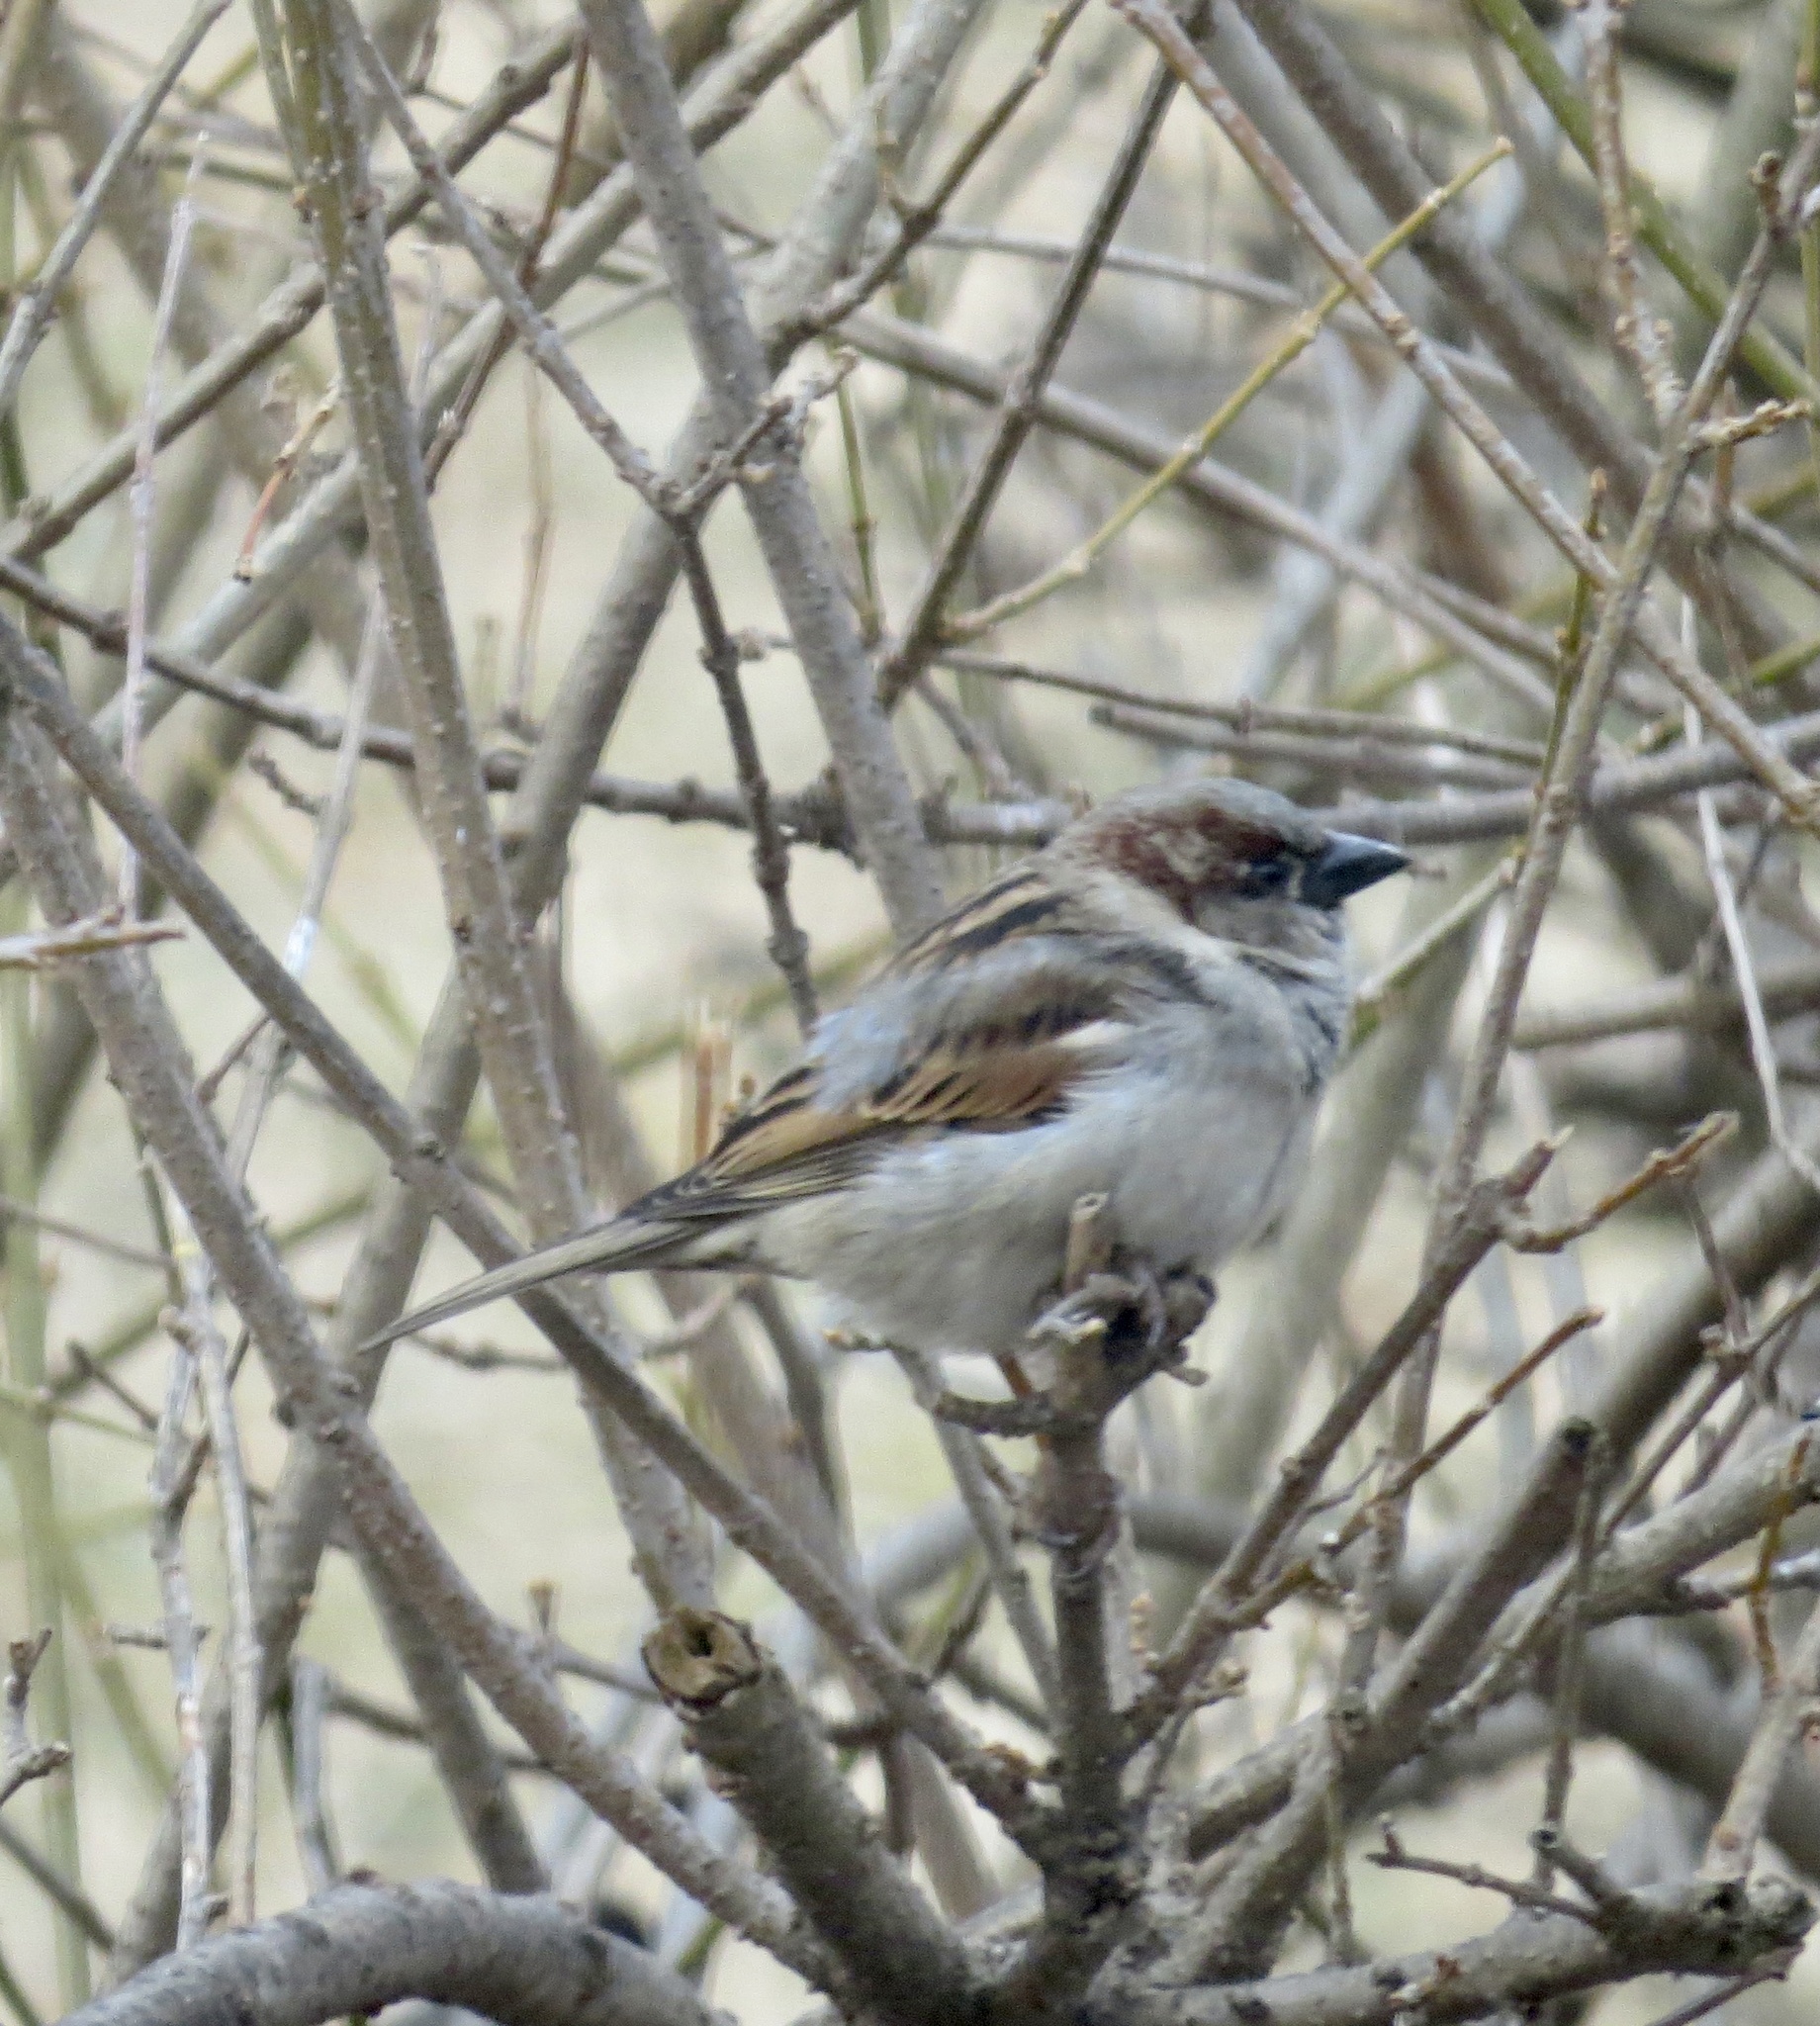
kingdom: Animalia
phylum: Chordata
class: Aves
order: Passeriformes
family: Passeridae
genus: Passer
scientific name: Passer domesticus
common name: House sparrow
